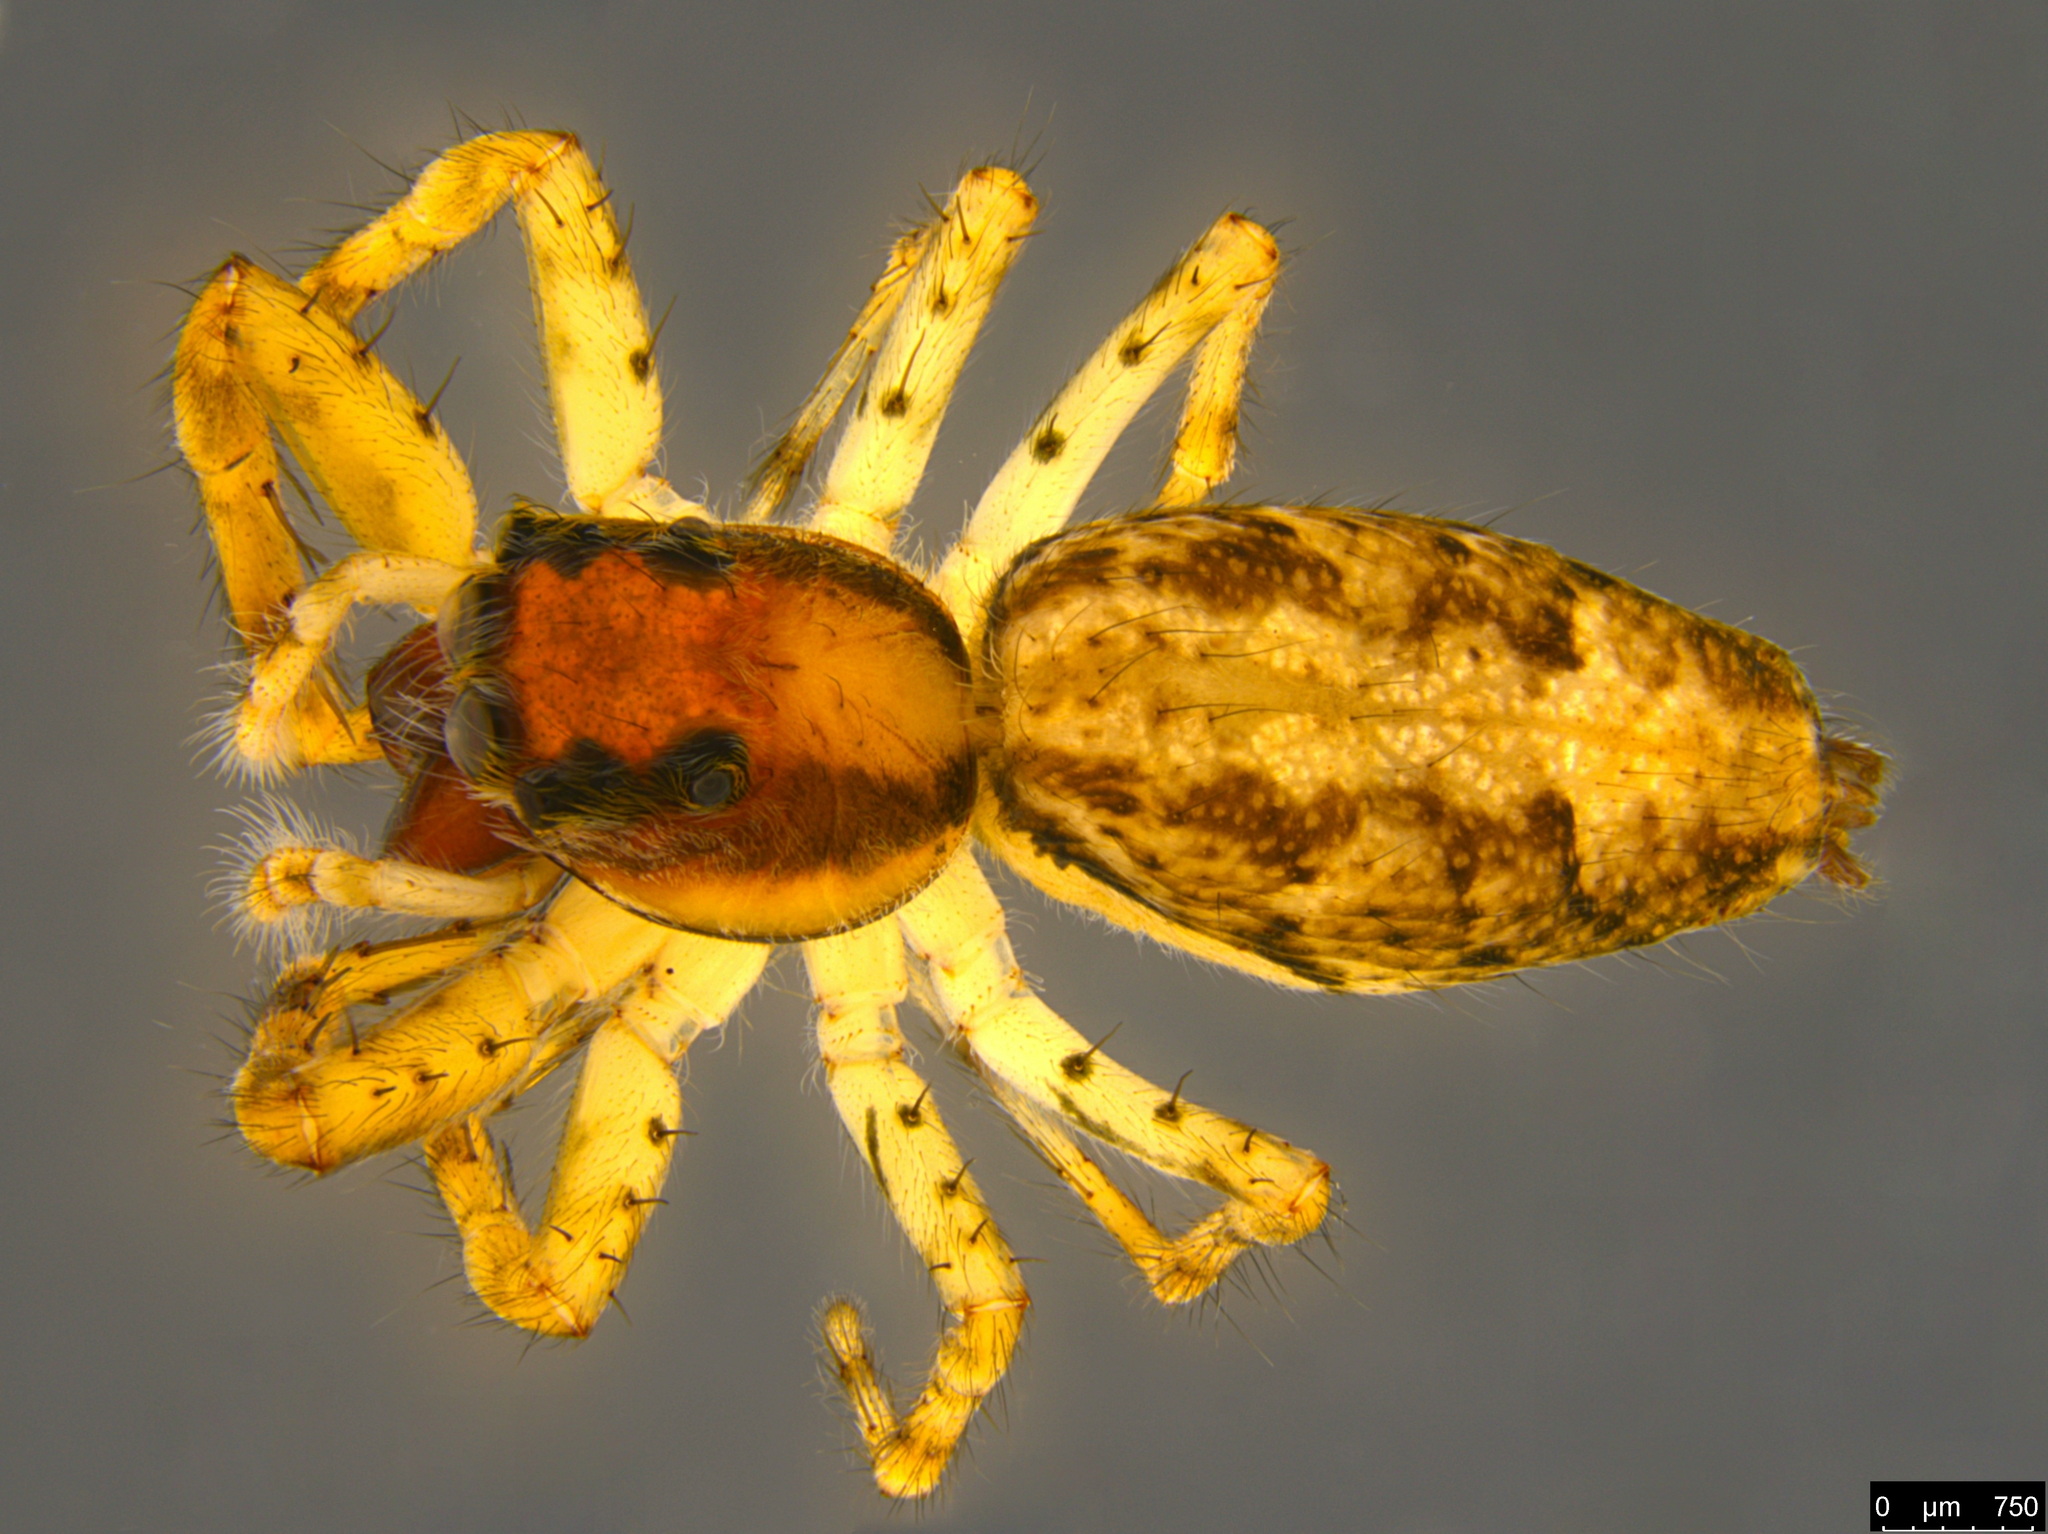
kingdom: Animalia
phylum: Arthropoda
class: Arachnida
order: Araneae
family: Salticidae
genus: Helpis
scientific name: Helpis minitabunda
